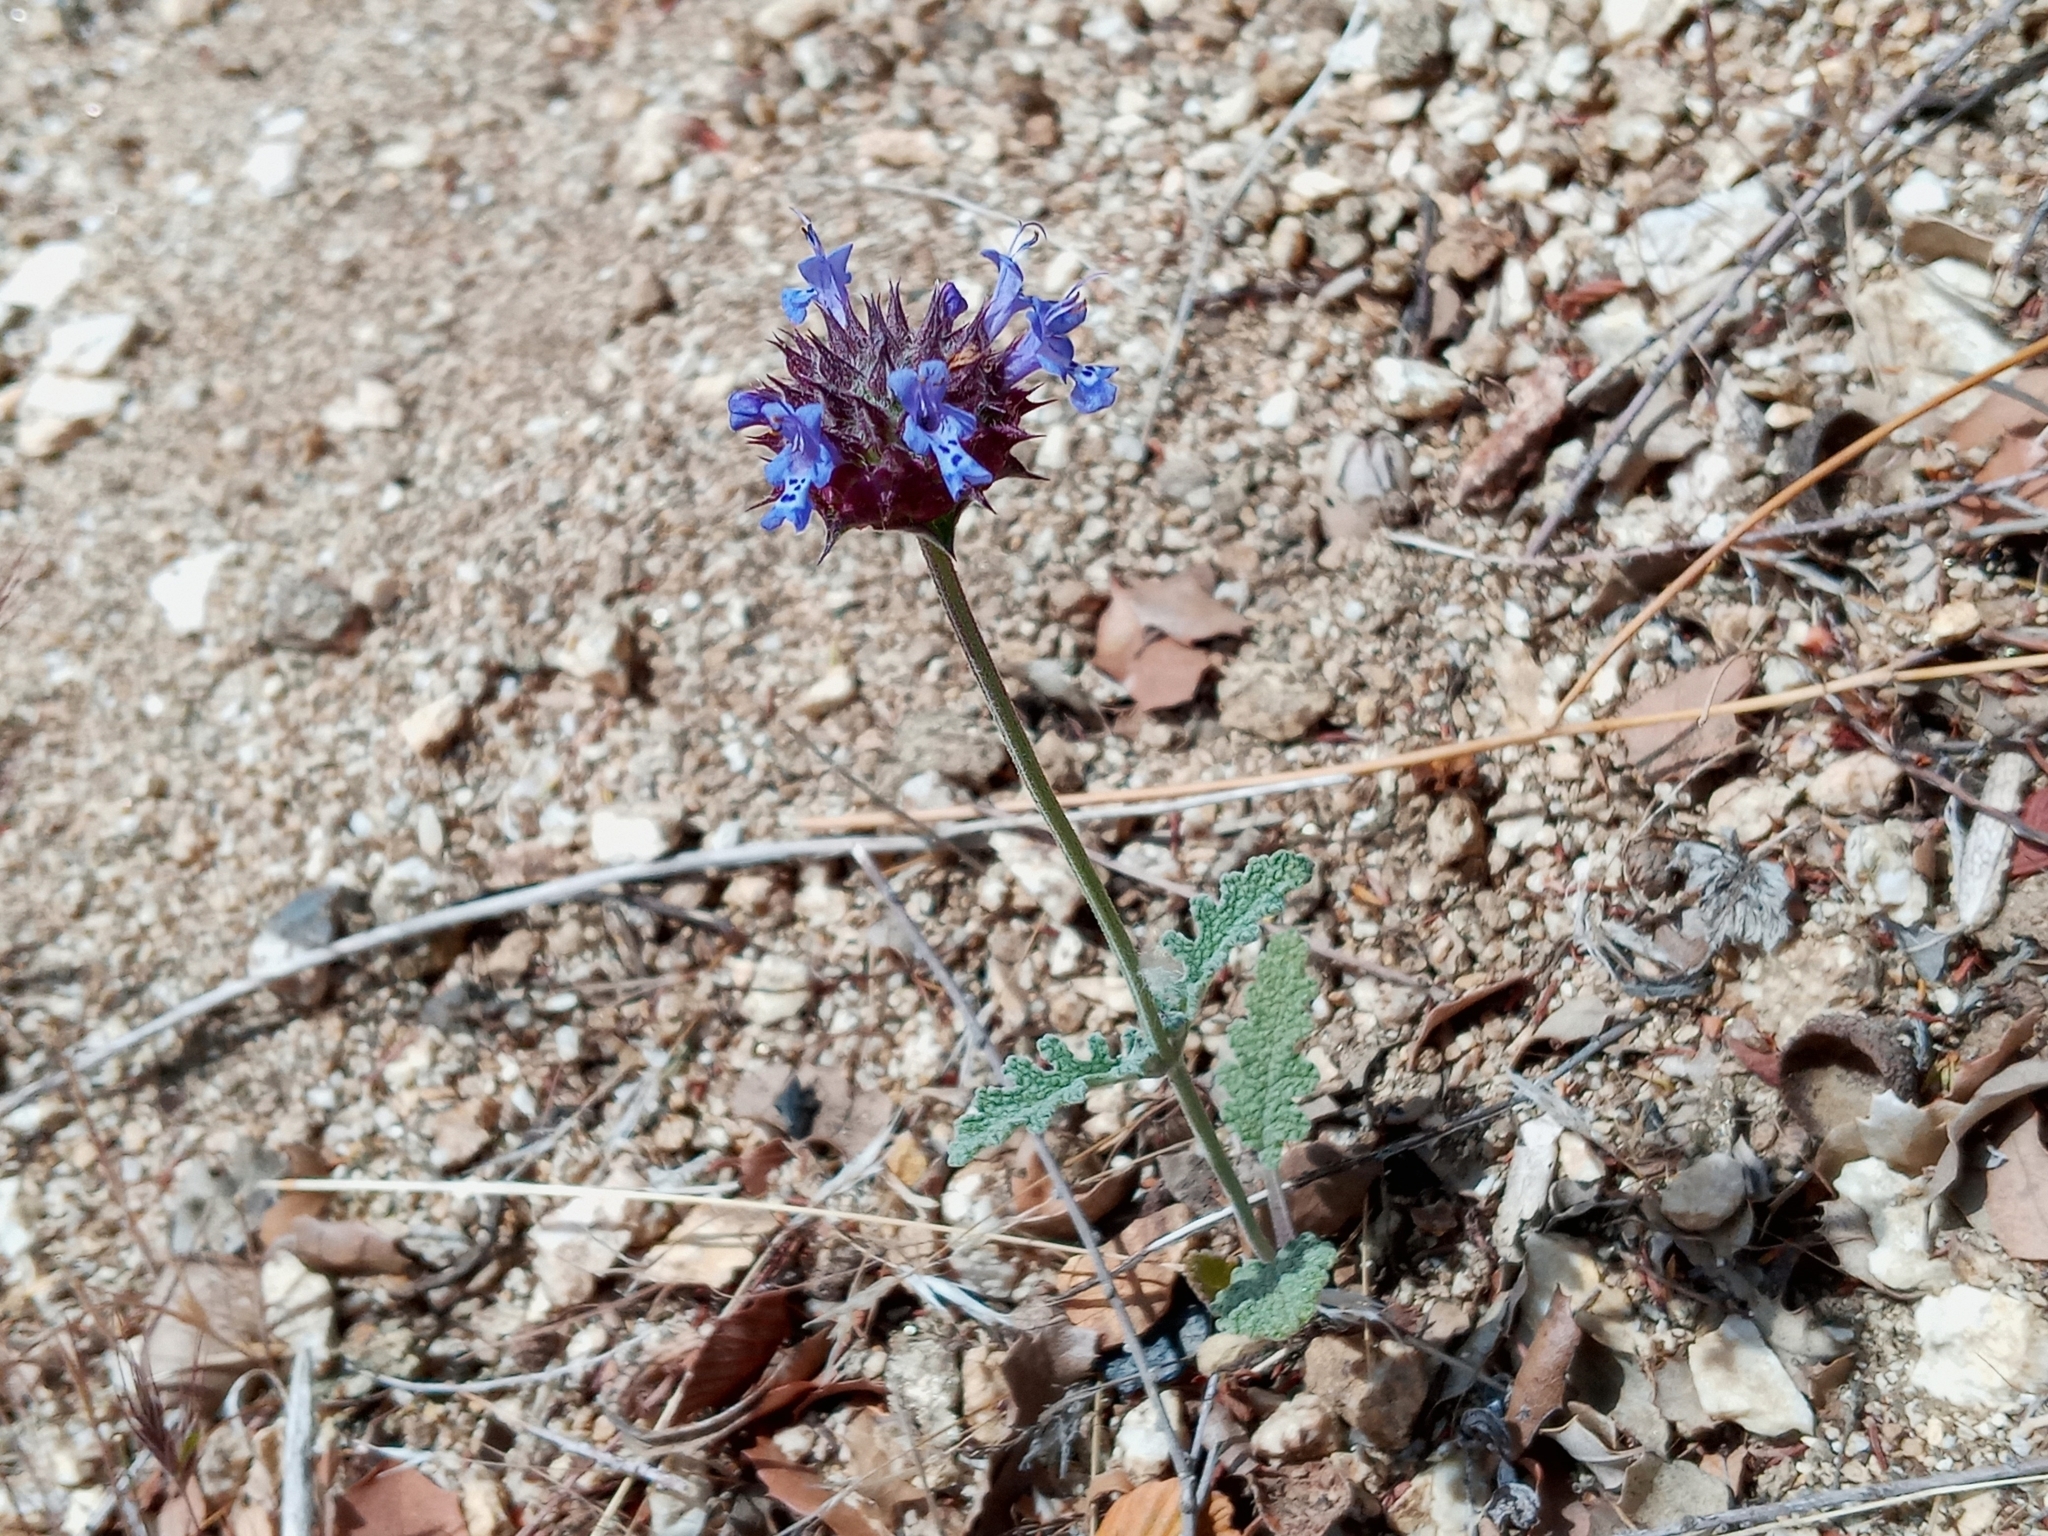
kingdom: Plantae
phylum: Tracheophyta
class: Magnoliopsida
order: Lamiales
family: Lamiaceae
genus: Salvia
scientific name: Salvia columbariae
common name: Chia
